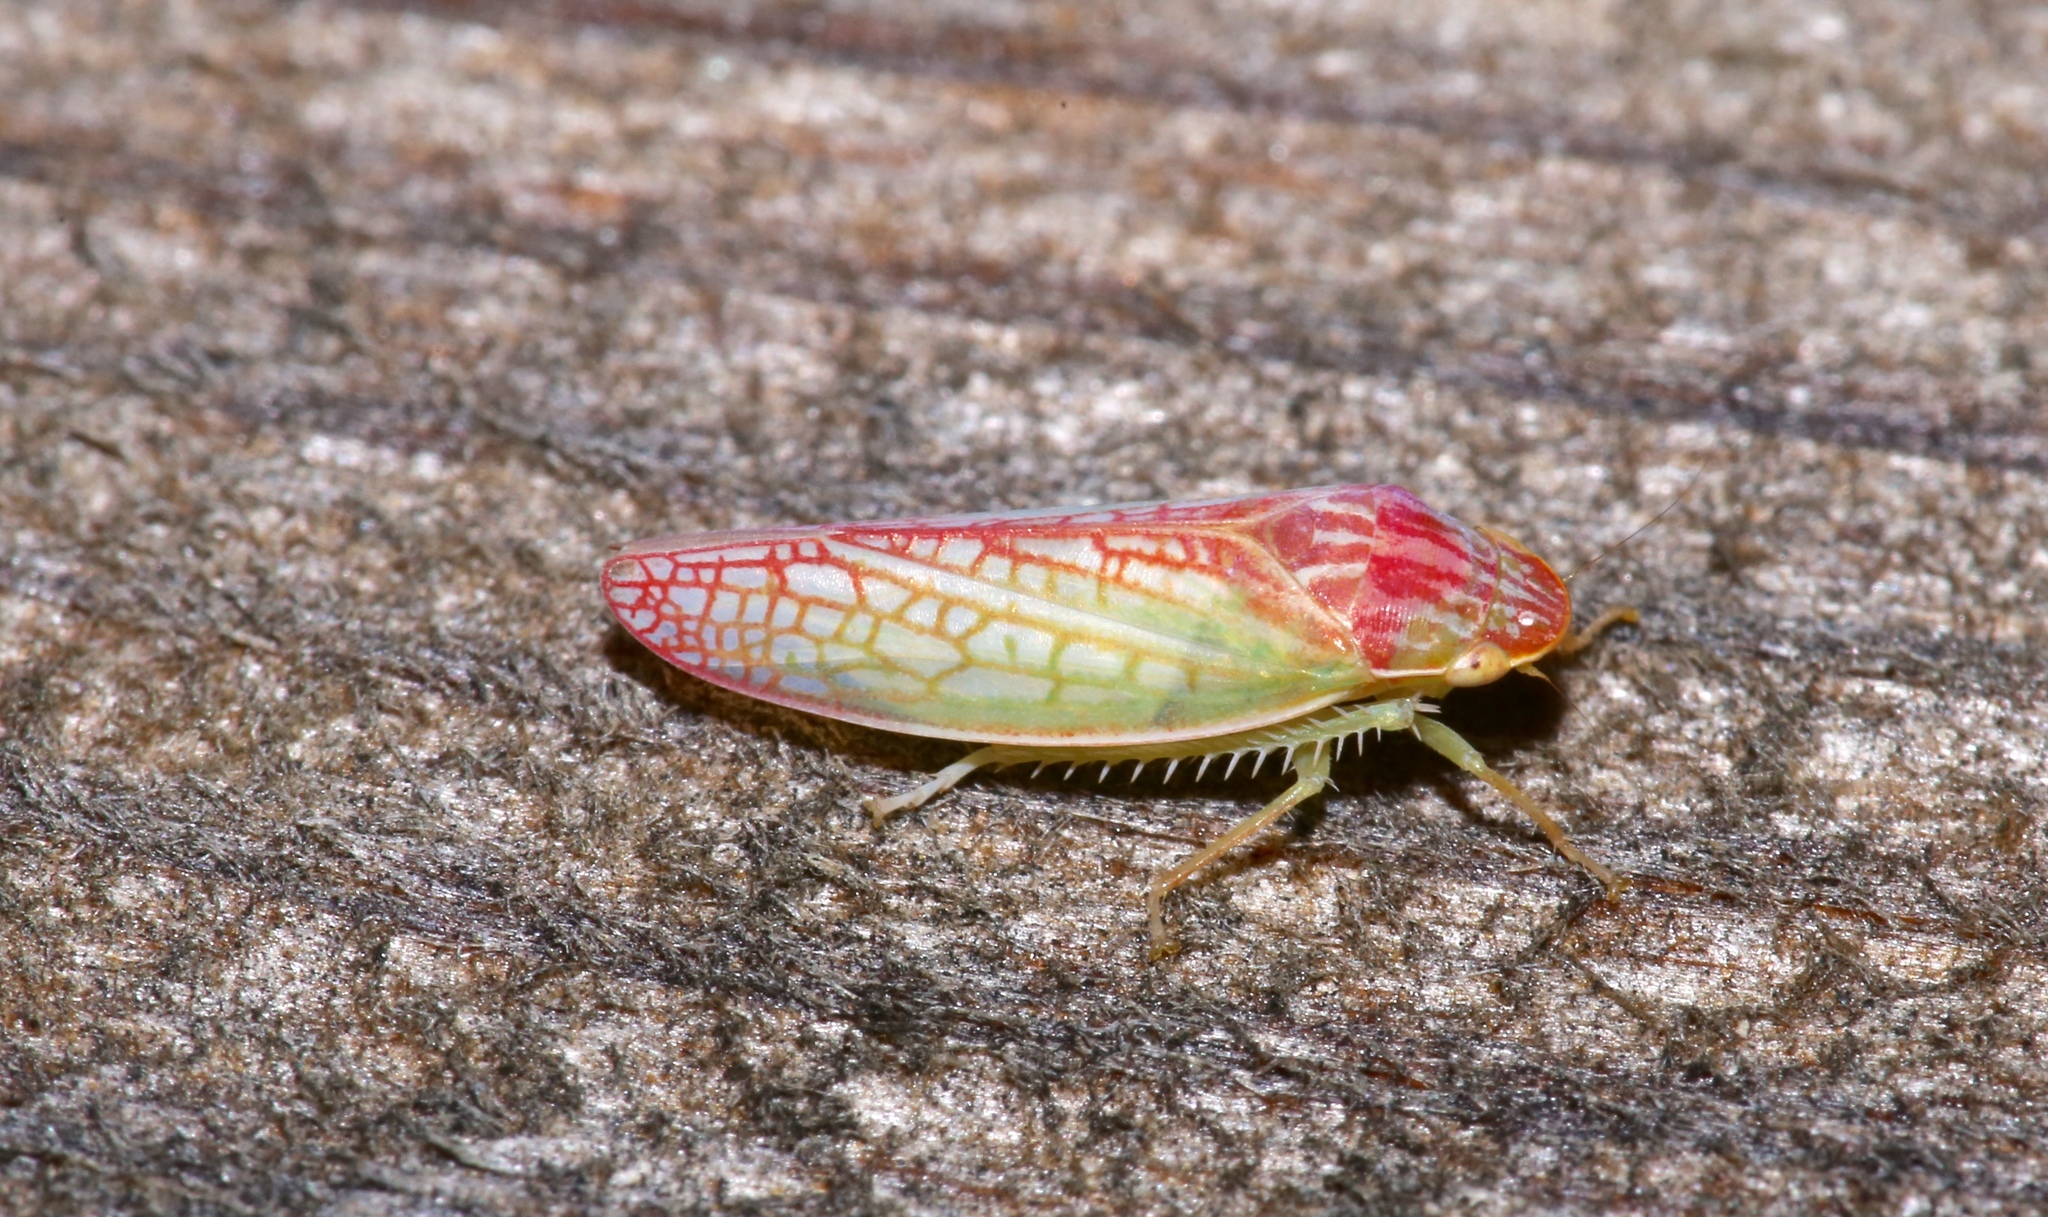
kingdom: Animalia
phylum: Arthropoda
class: Insecta
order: Hemiptera
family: Cicadellidae
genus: Gyponana
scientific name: Gyponana octolineata
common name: Eight-lined leafhopper
